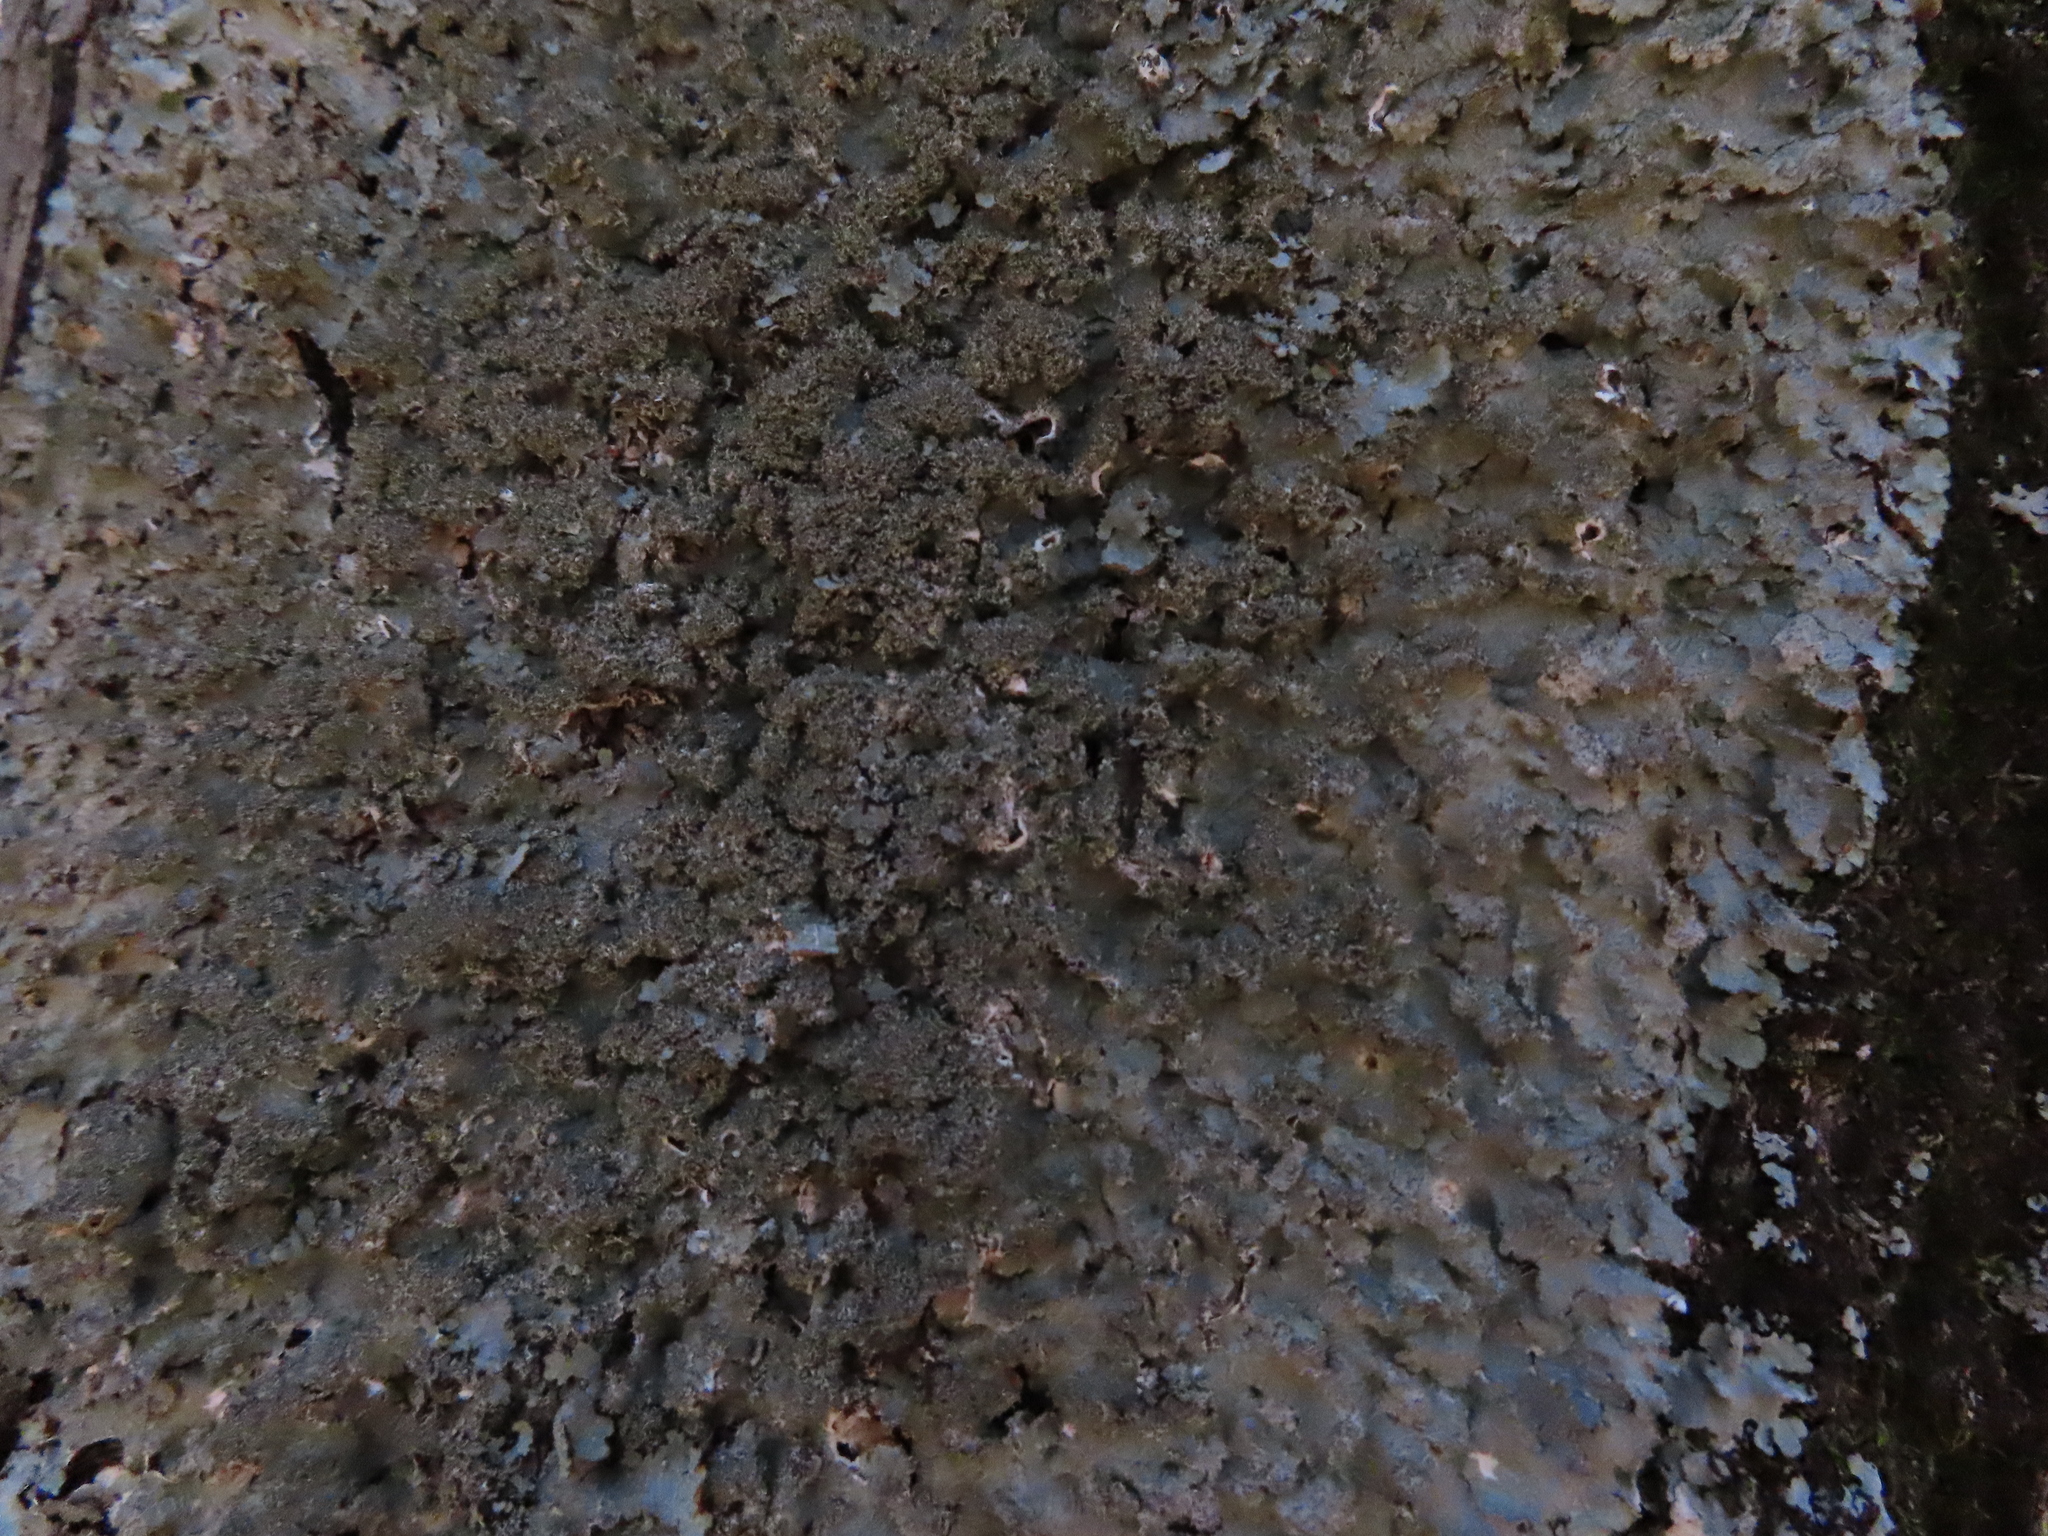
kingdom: Fungi
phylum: Ascomycota
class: Lecanoromycetes
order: Lecanorales
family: Parmeliaceae
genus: Punctelia
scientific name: Punctelia rudecta
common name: Rough speckled shield lichen
